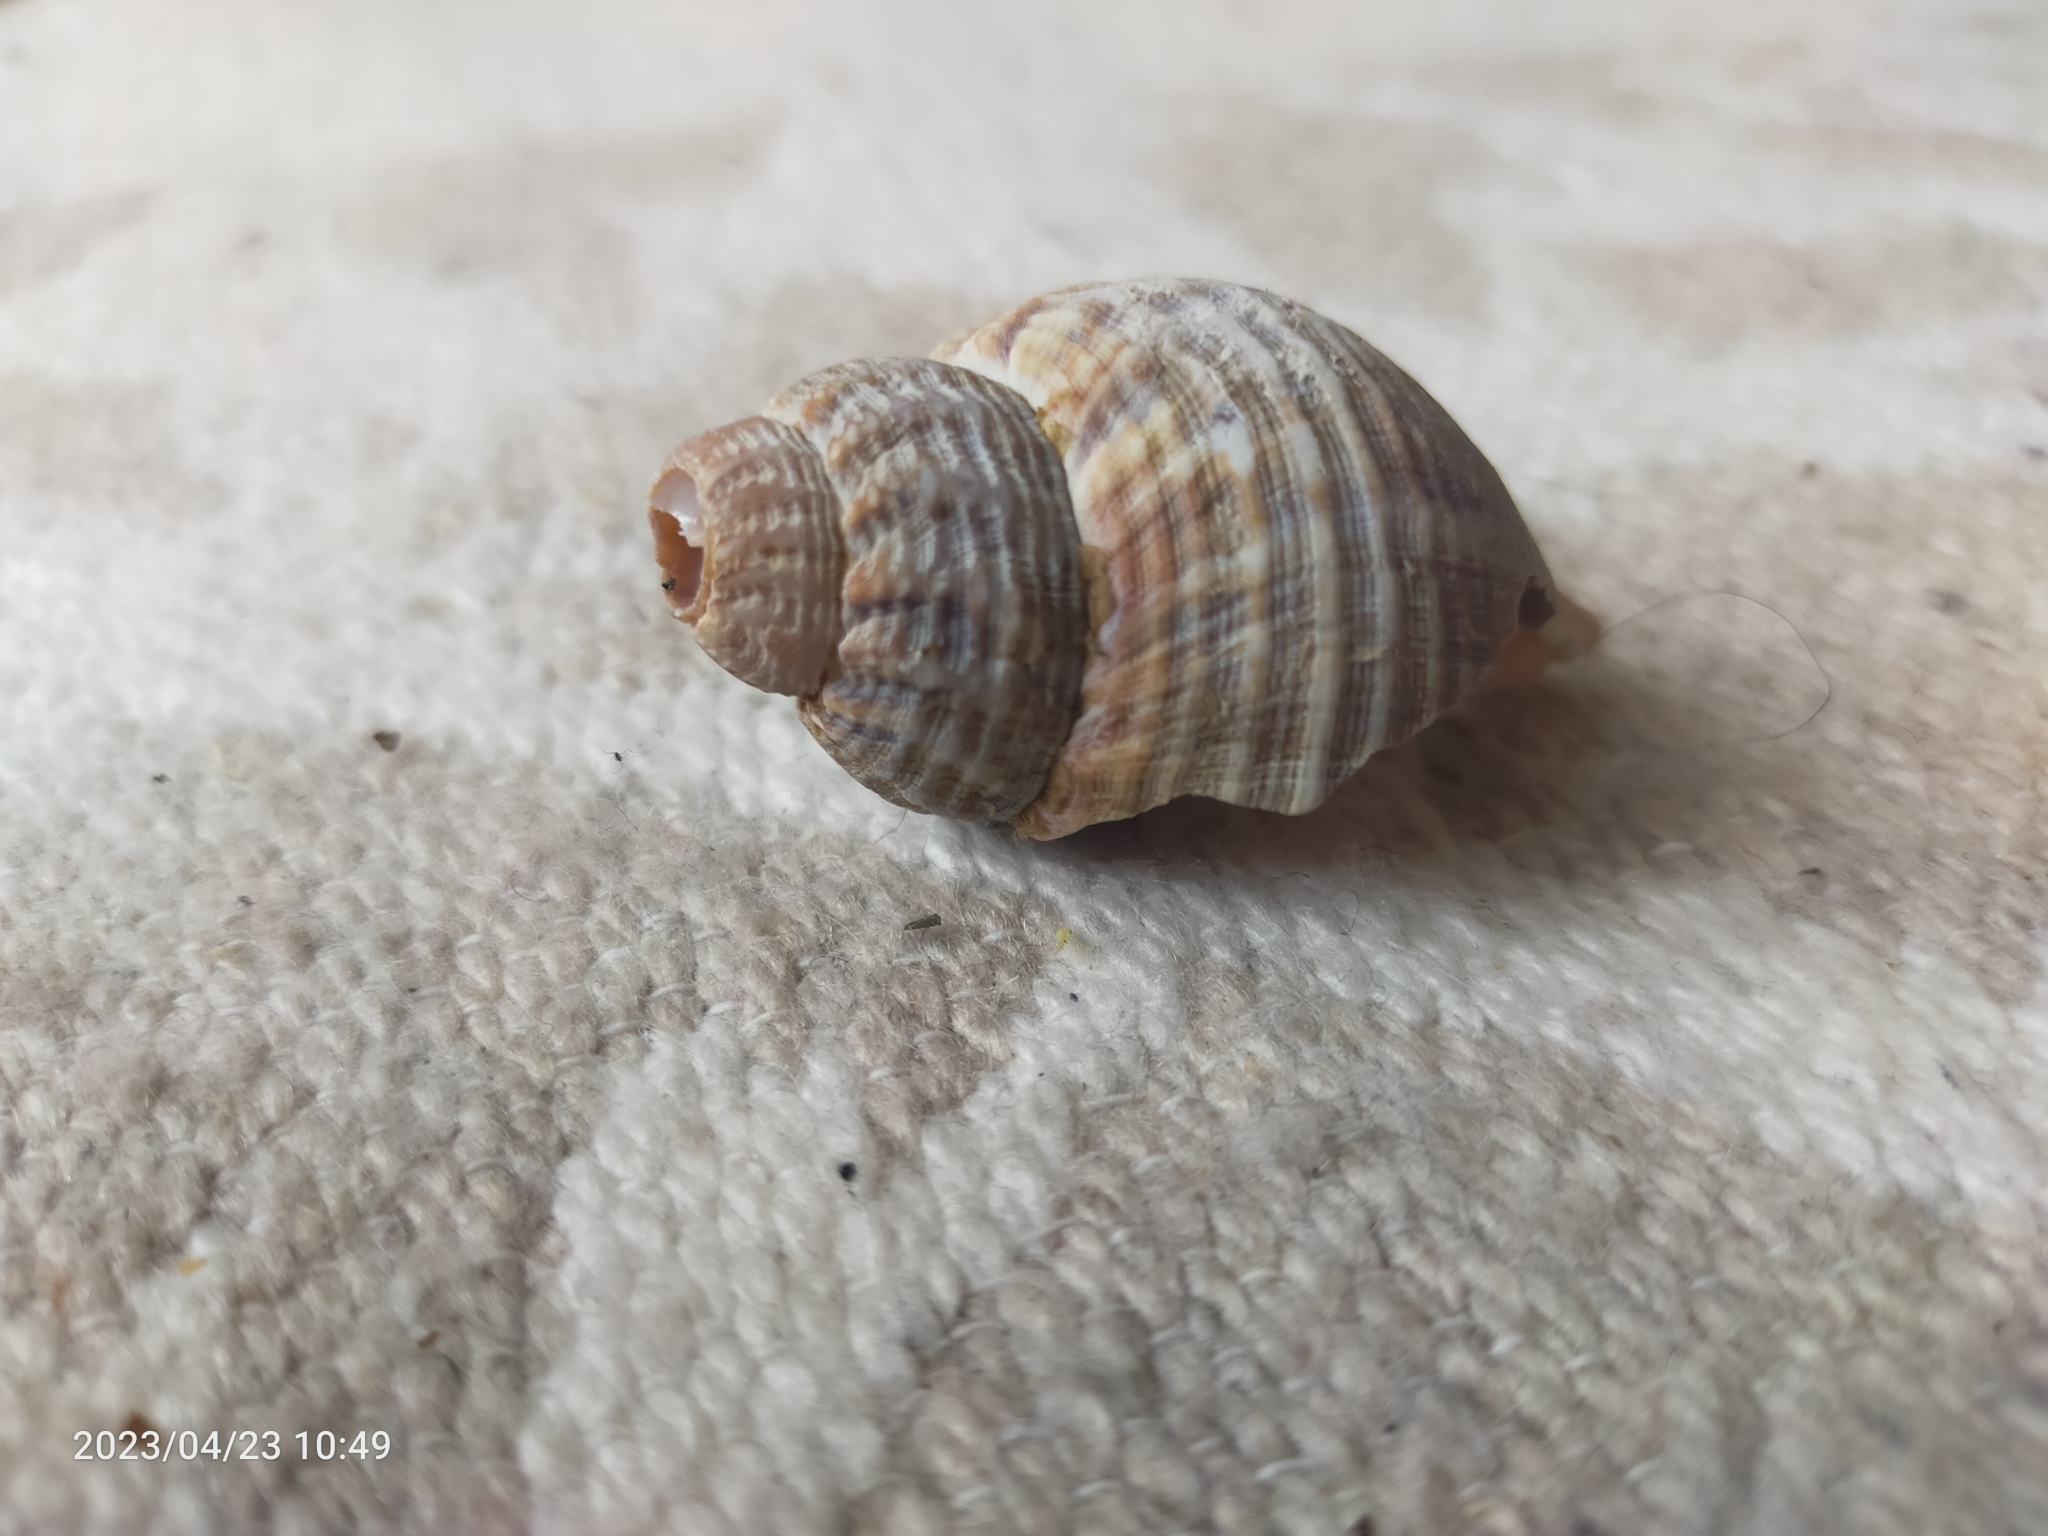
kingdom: Animalia
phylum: Mollusca
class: Gastropoda
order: Neogastropoda
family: Buccinidae
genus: Buccinum
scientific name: Buccinum undatum
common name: Common whelk
